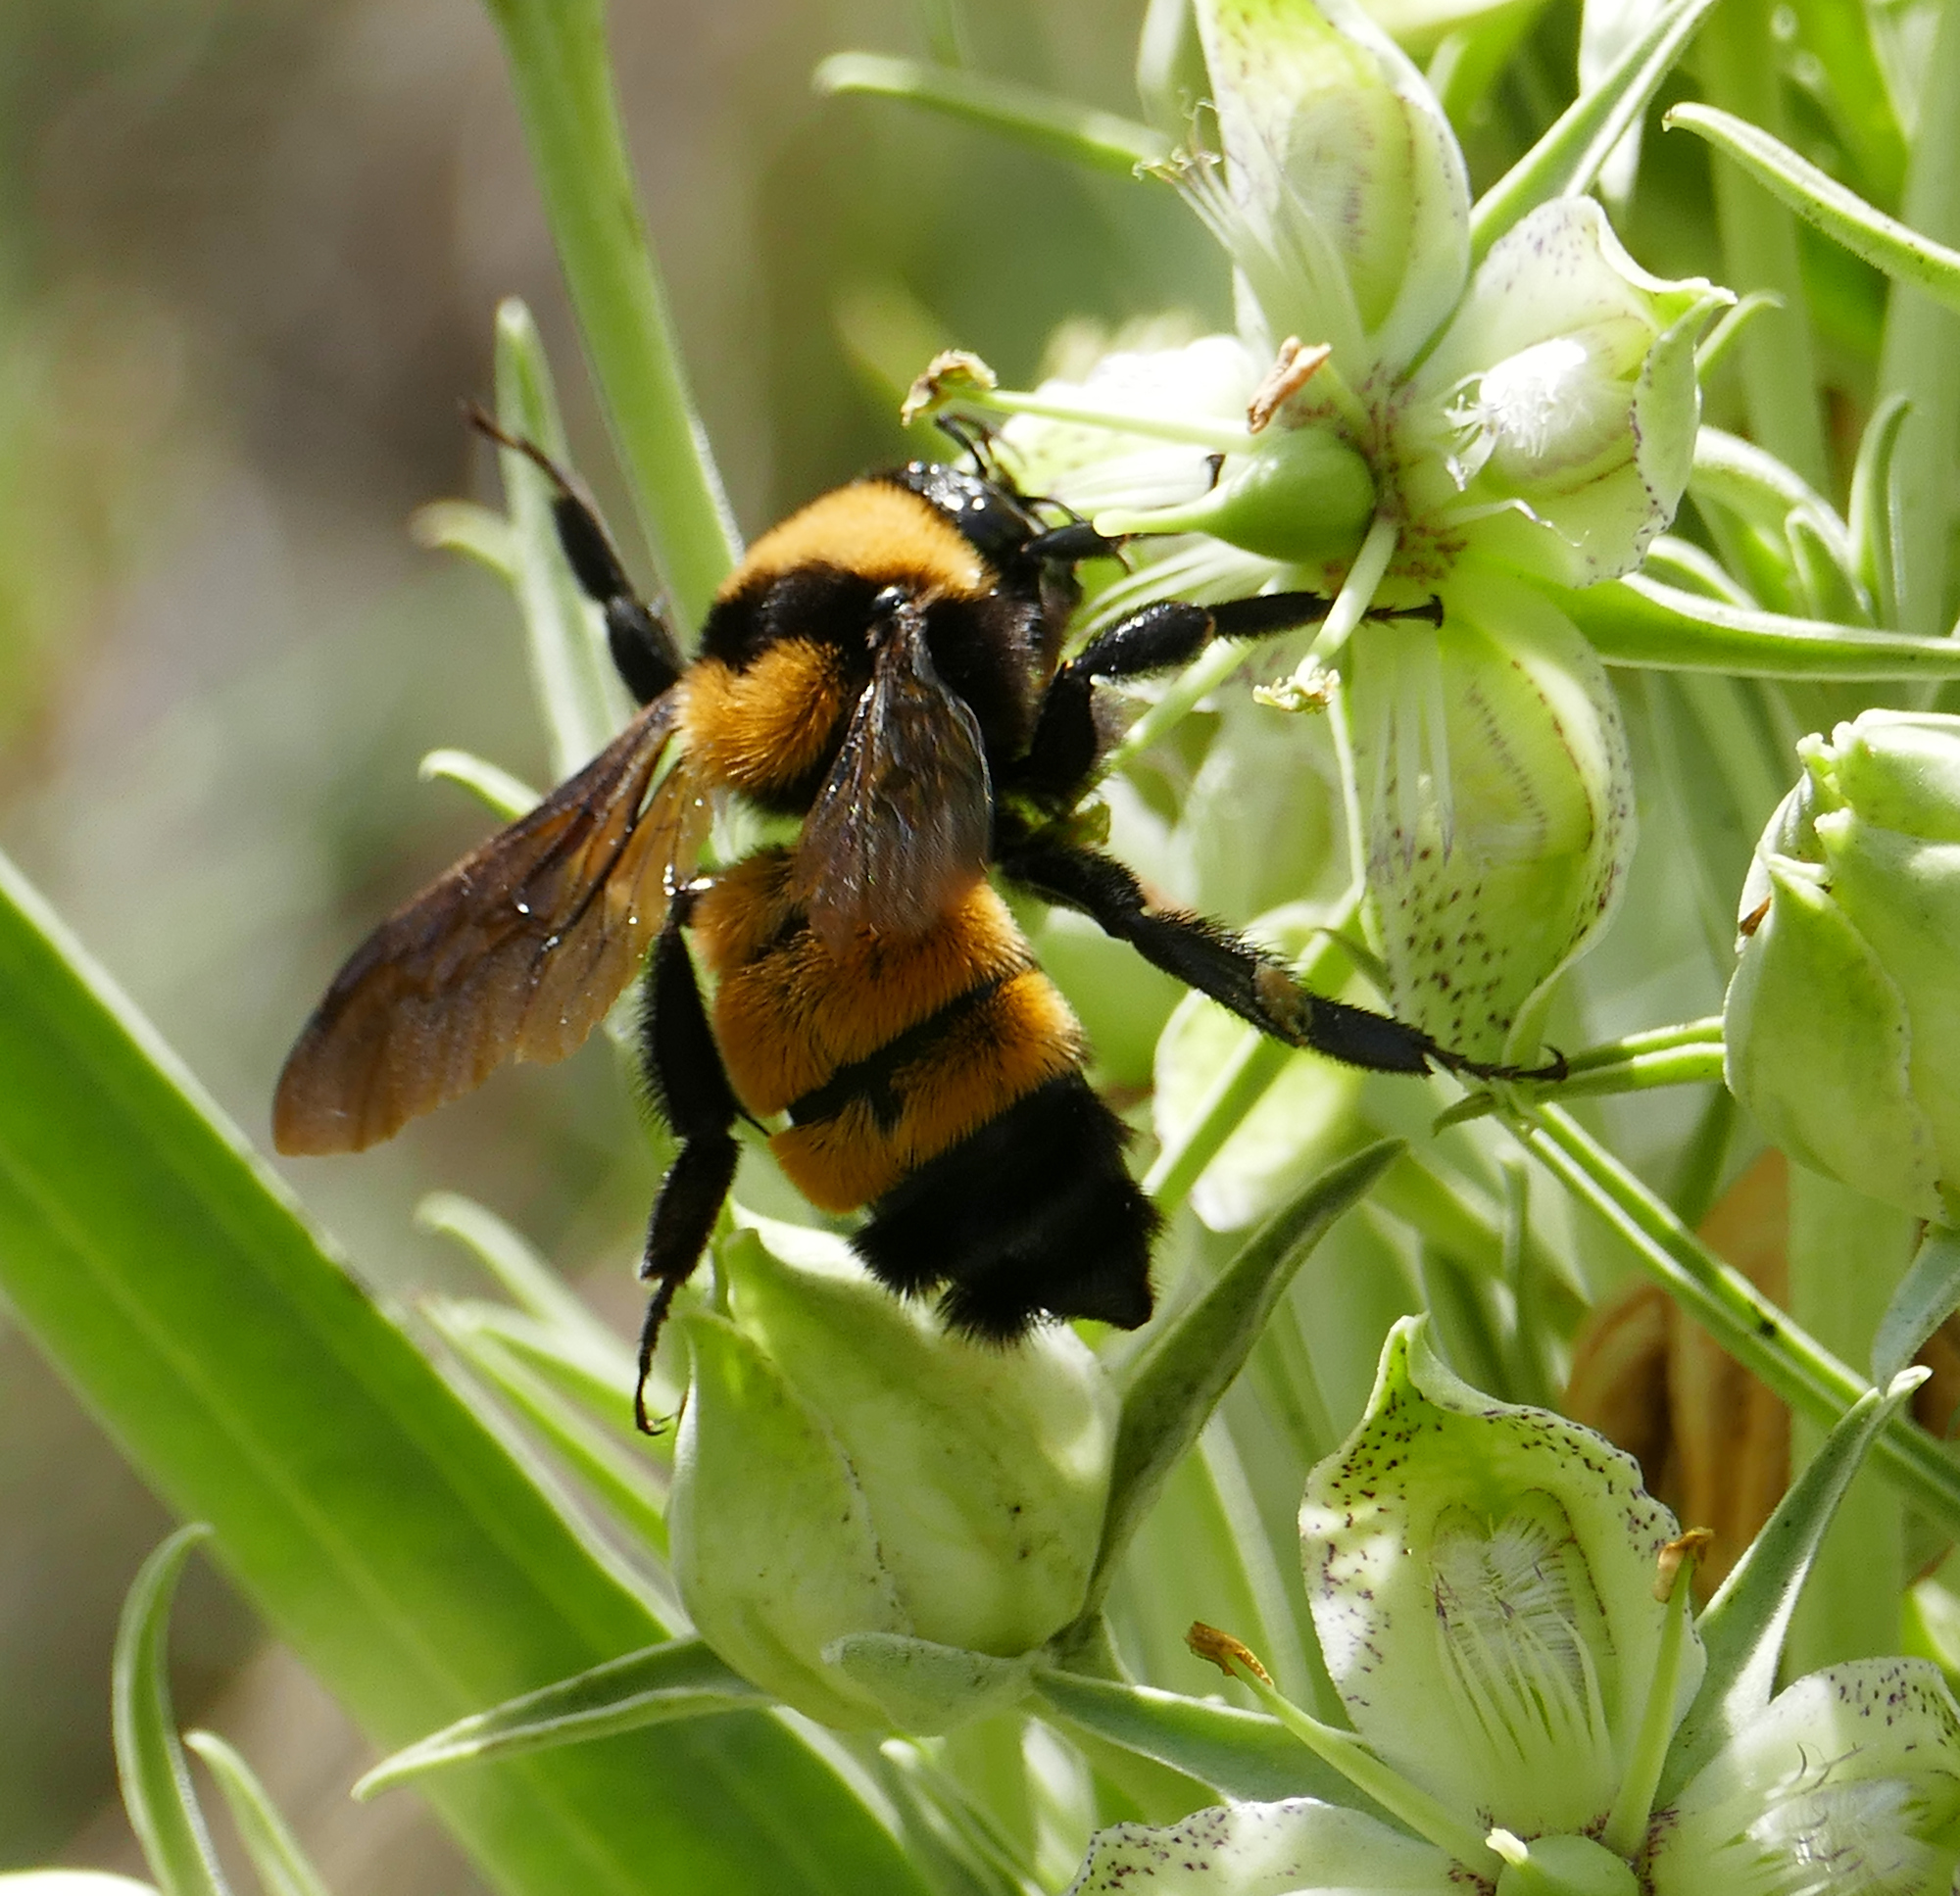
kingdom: Animalia
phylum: Arthropoda
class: Insecta
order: Hymenoptera
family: Apidae
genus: Bombus
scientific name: Bombus sonorus
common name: Sonoran bumble bee
